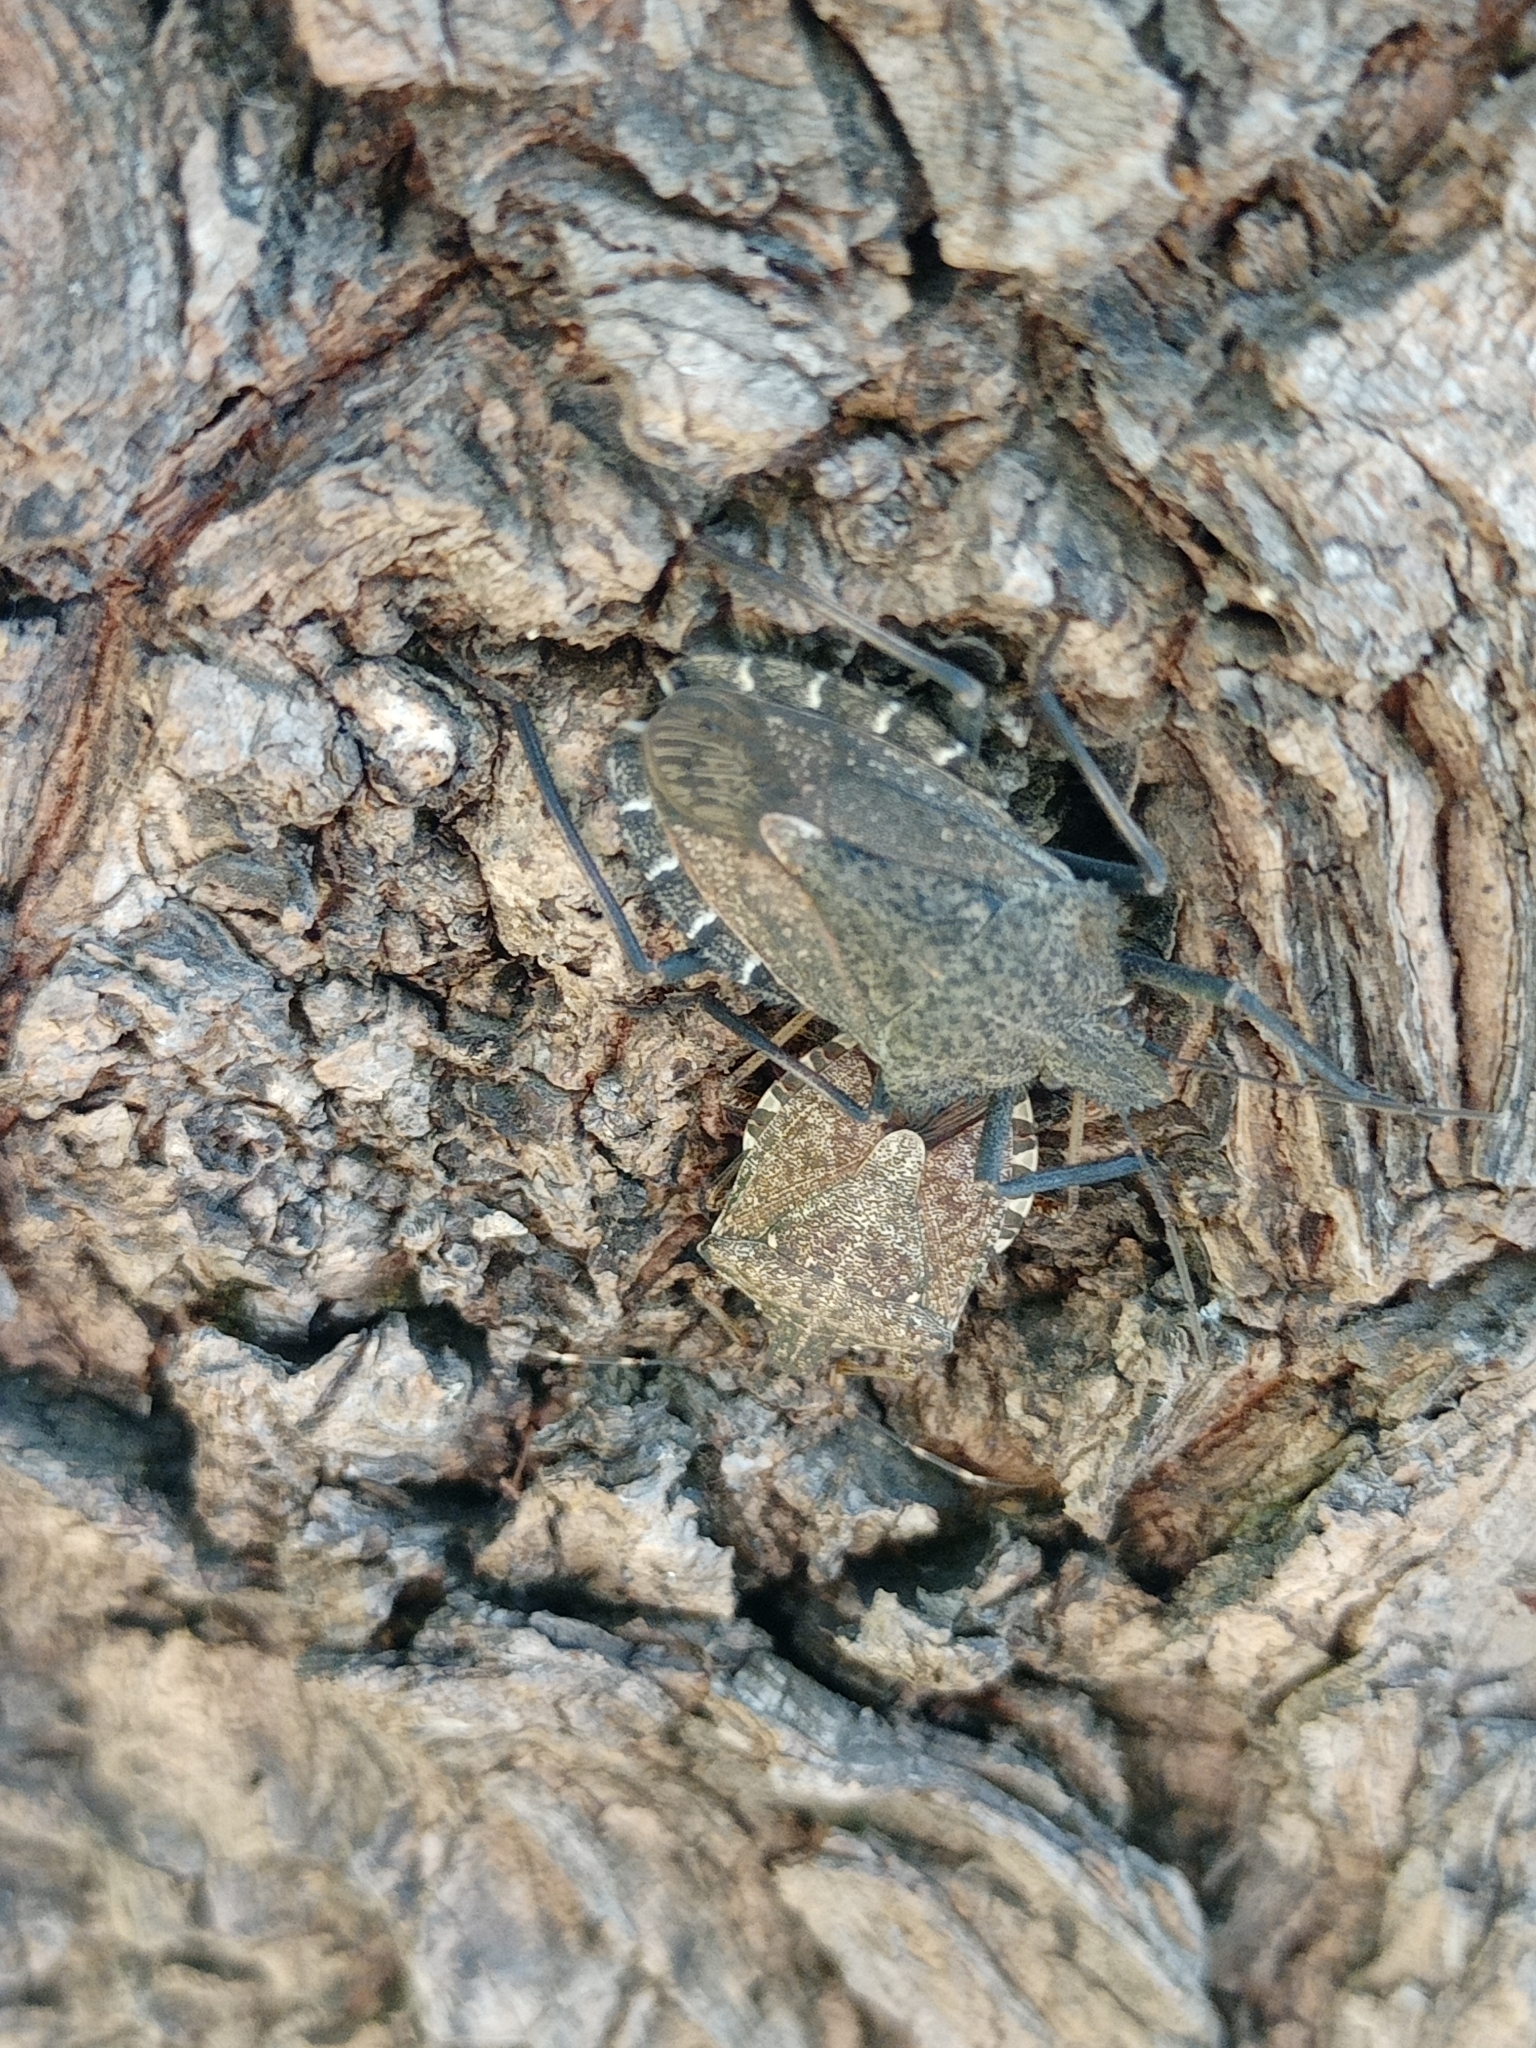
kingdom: Animalia
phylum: Arthropoda
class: Insecta
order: Hemiptera
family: Pentatomidae
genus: Mustha
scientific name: Mustha spinosula
